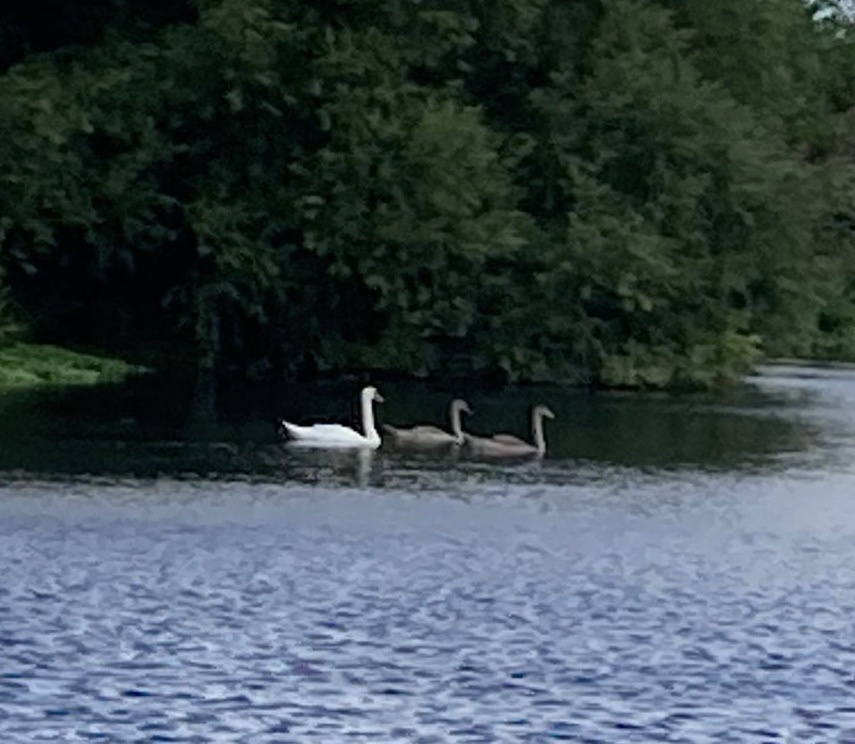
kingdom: Animalia
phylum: Chordata
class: Aves
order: Anseriformes
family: Anatidae
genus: Cygnus
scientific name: Cygnus olor
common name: Mute swan
